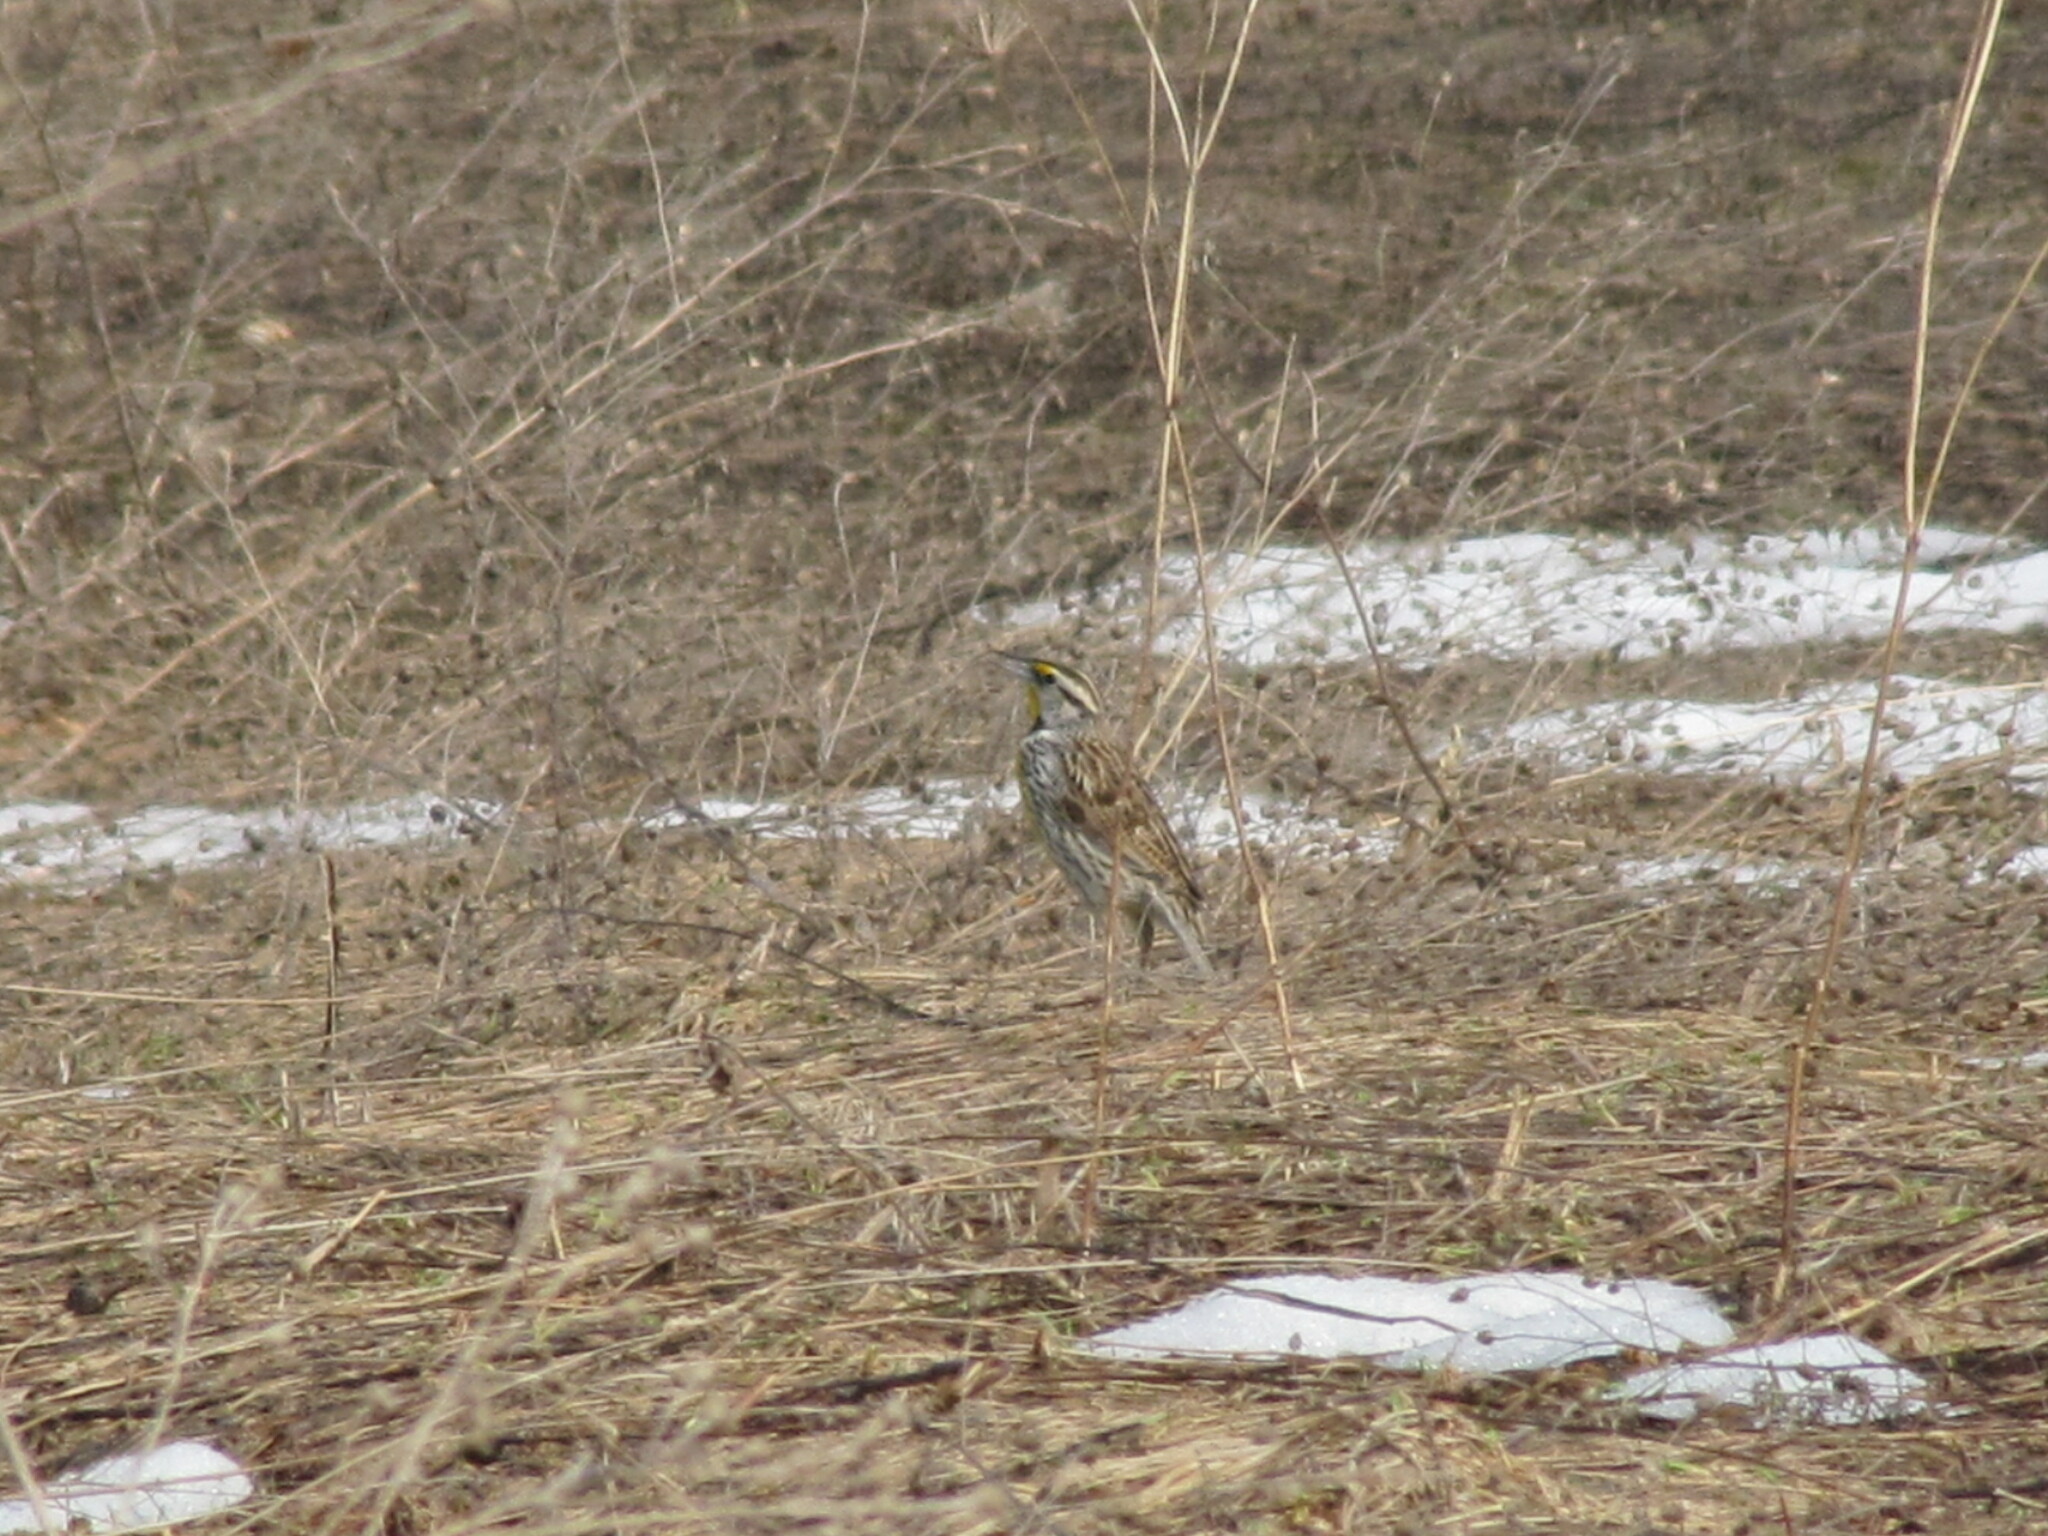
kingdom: Animalia
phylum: Chordata
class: Aves
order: Passeriformes
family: Icteridae
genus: Sturnella
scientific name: Sturnella magna
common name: Eastern meadowlark
